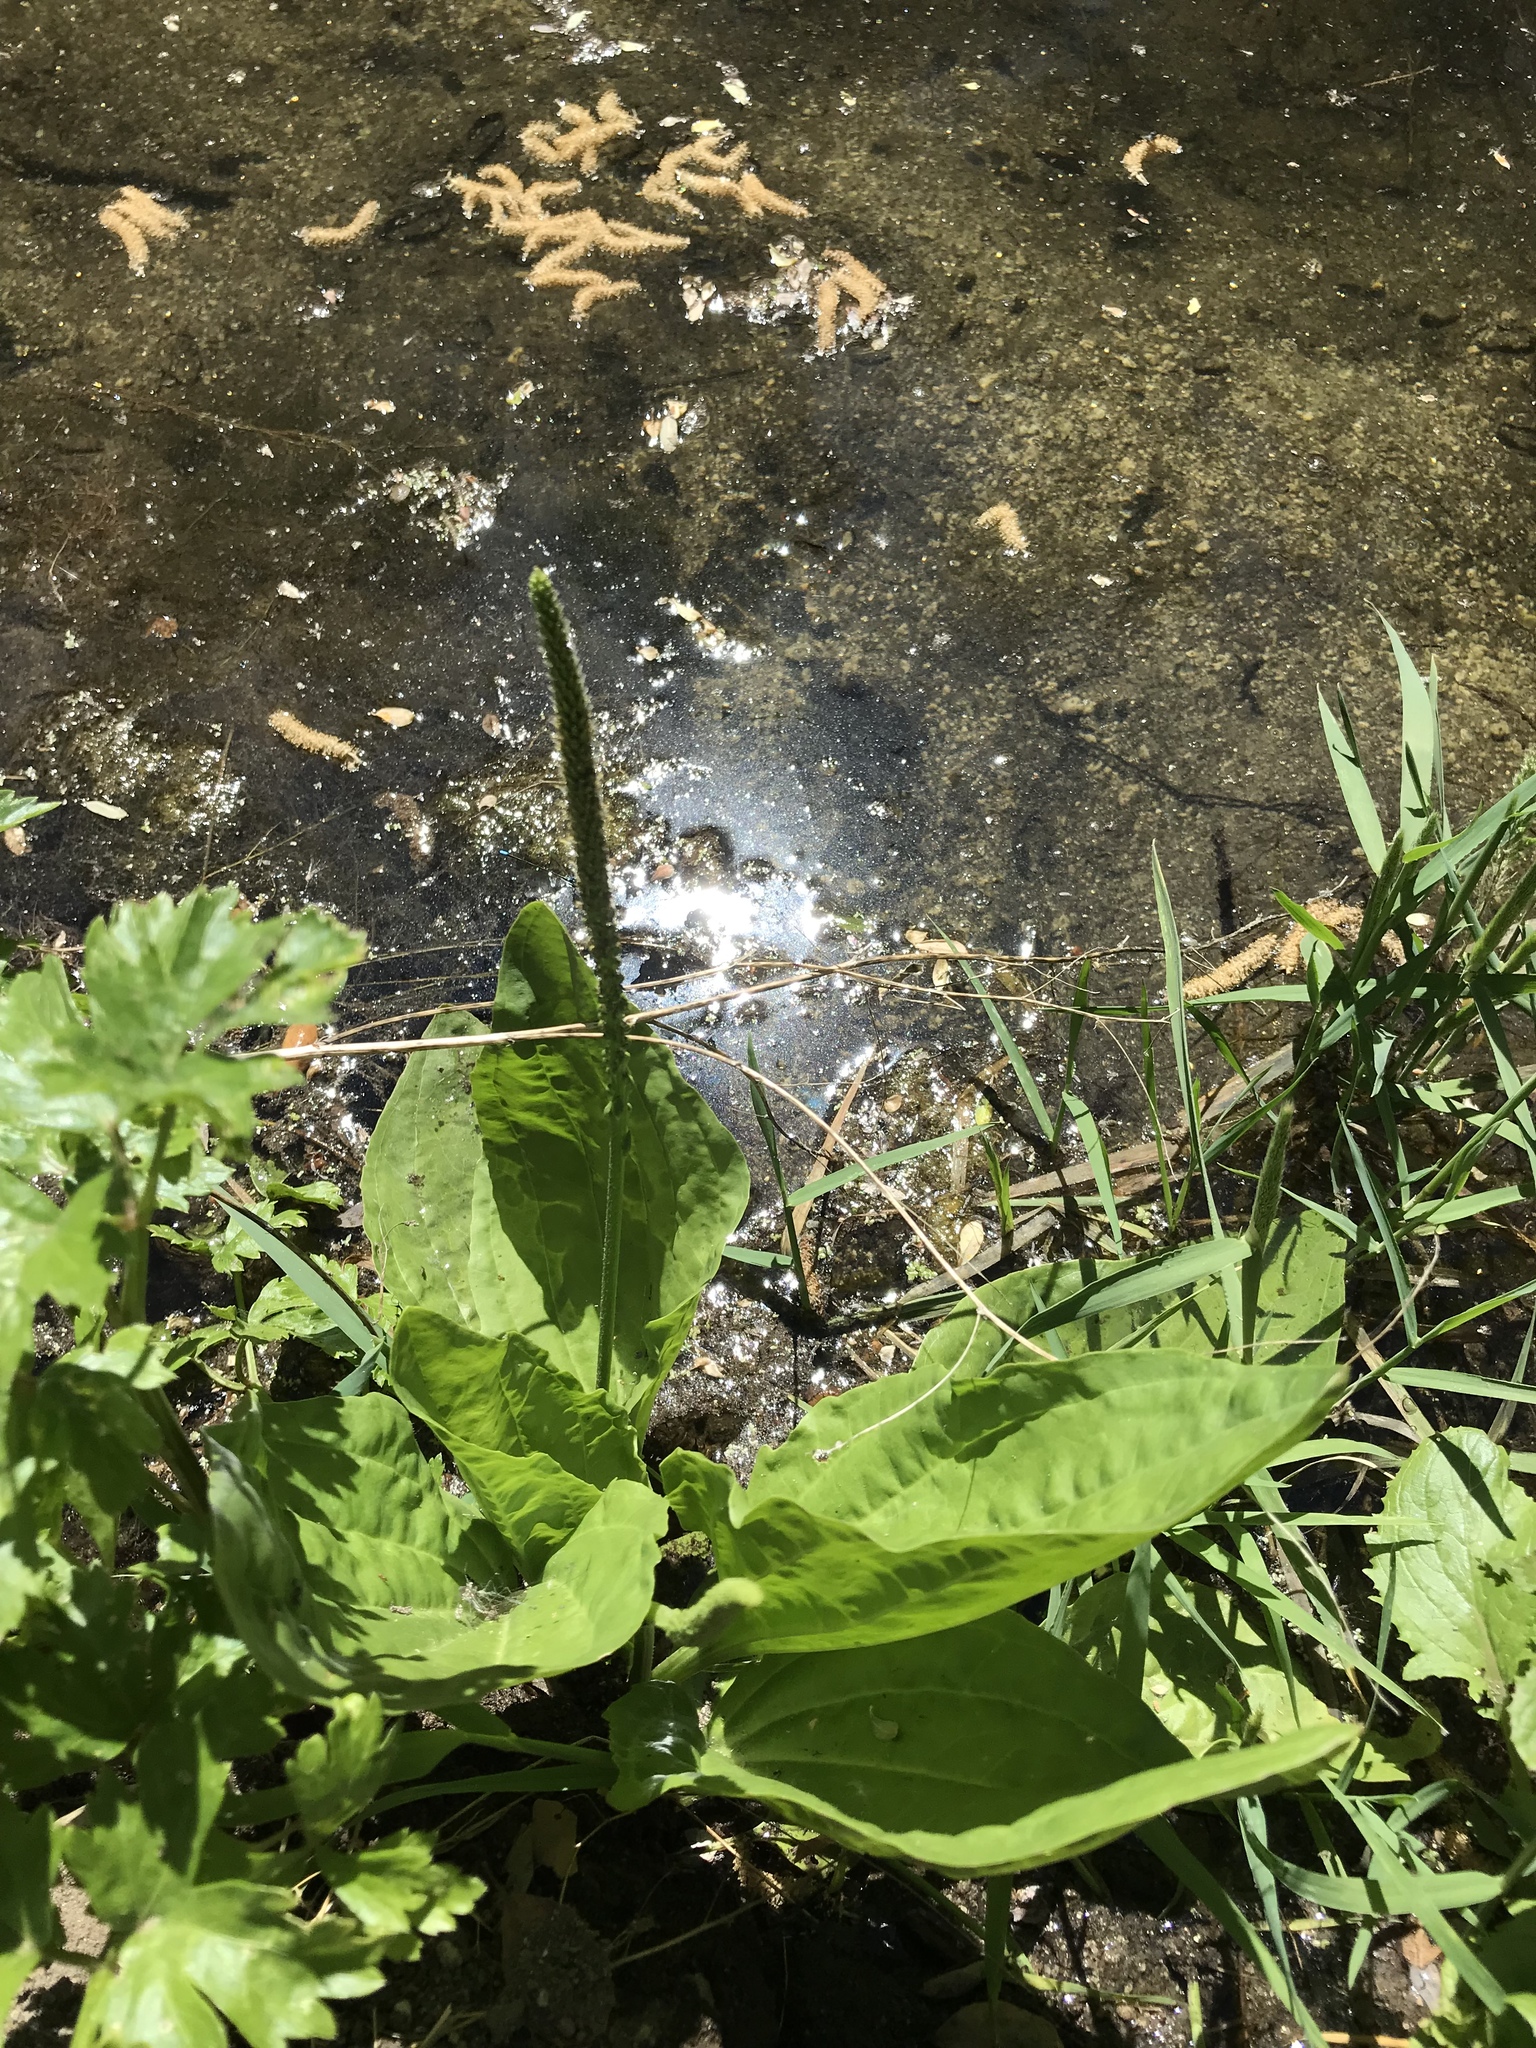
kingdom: Plantae
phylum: Tracheophyta
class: Magnoliopsida
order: Lamiales
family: Plantaginaceae
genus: Plantago
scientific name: Plantago major
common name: Common plantain
